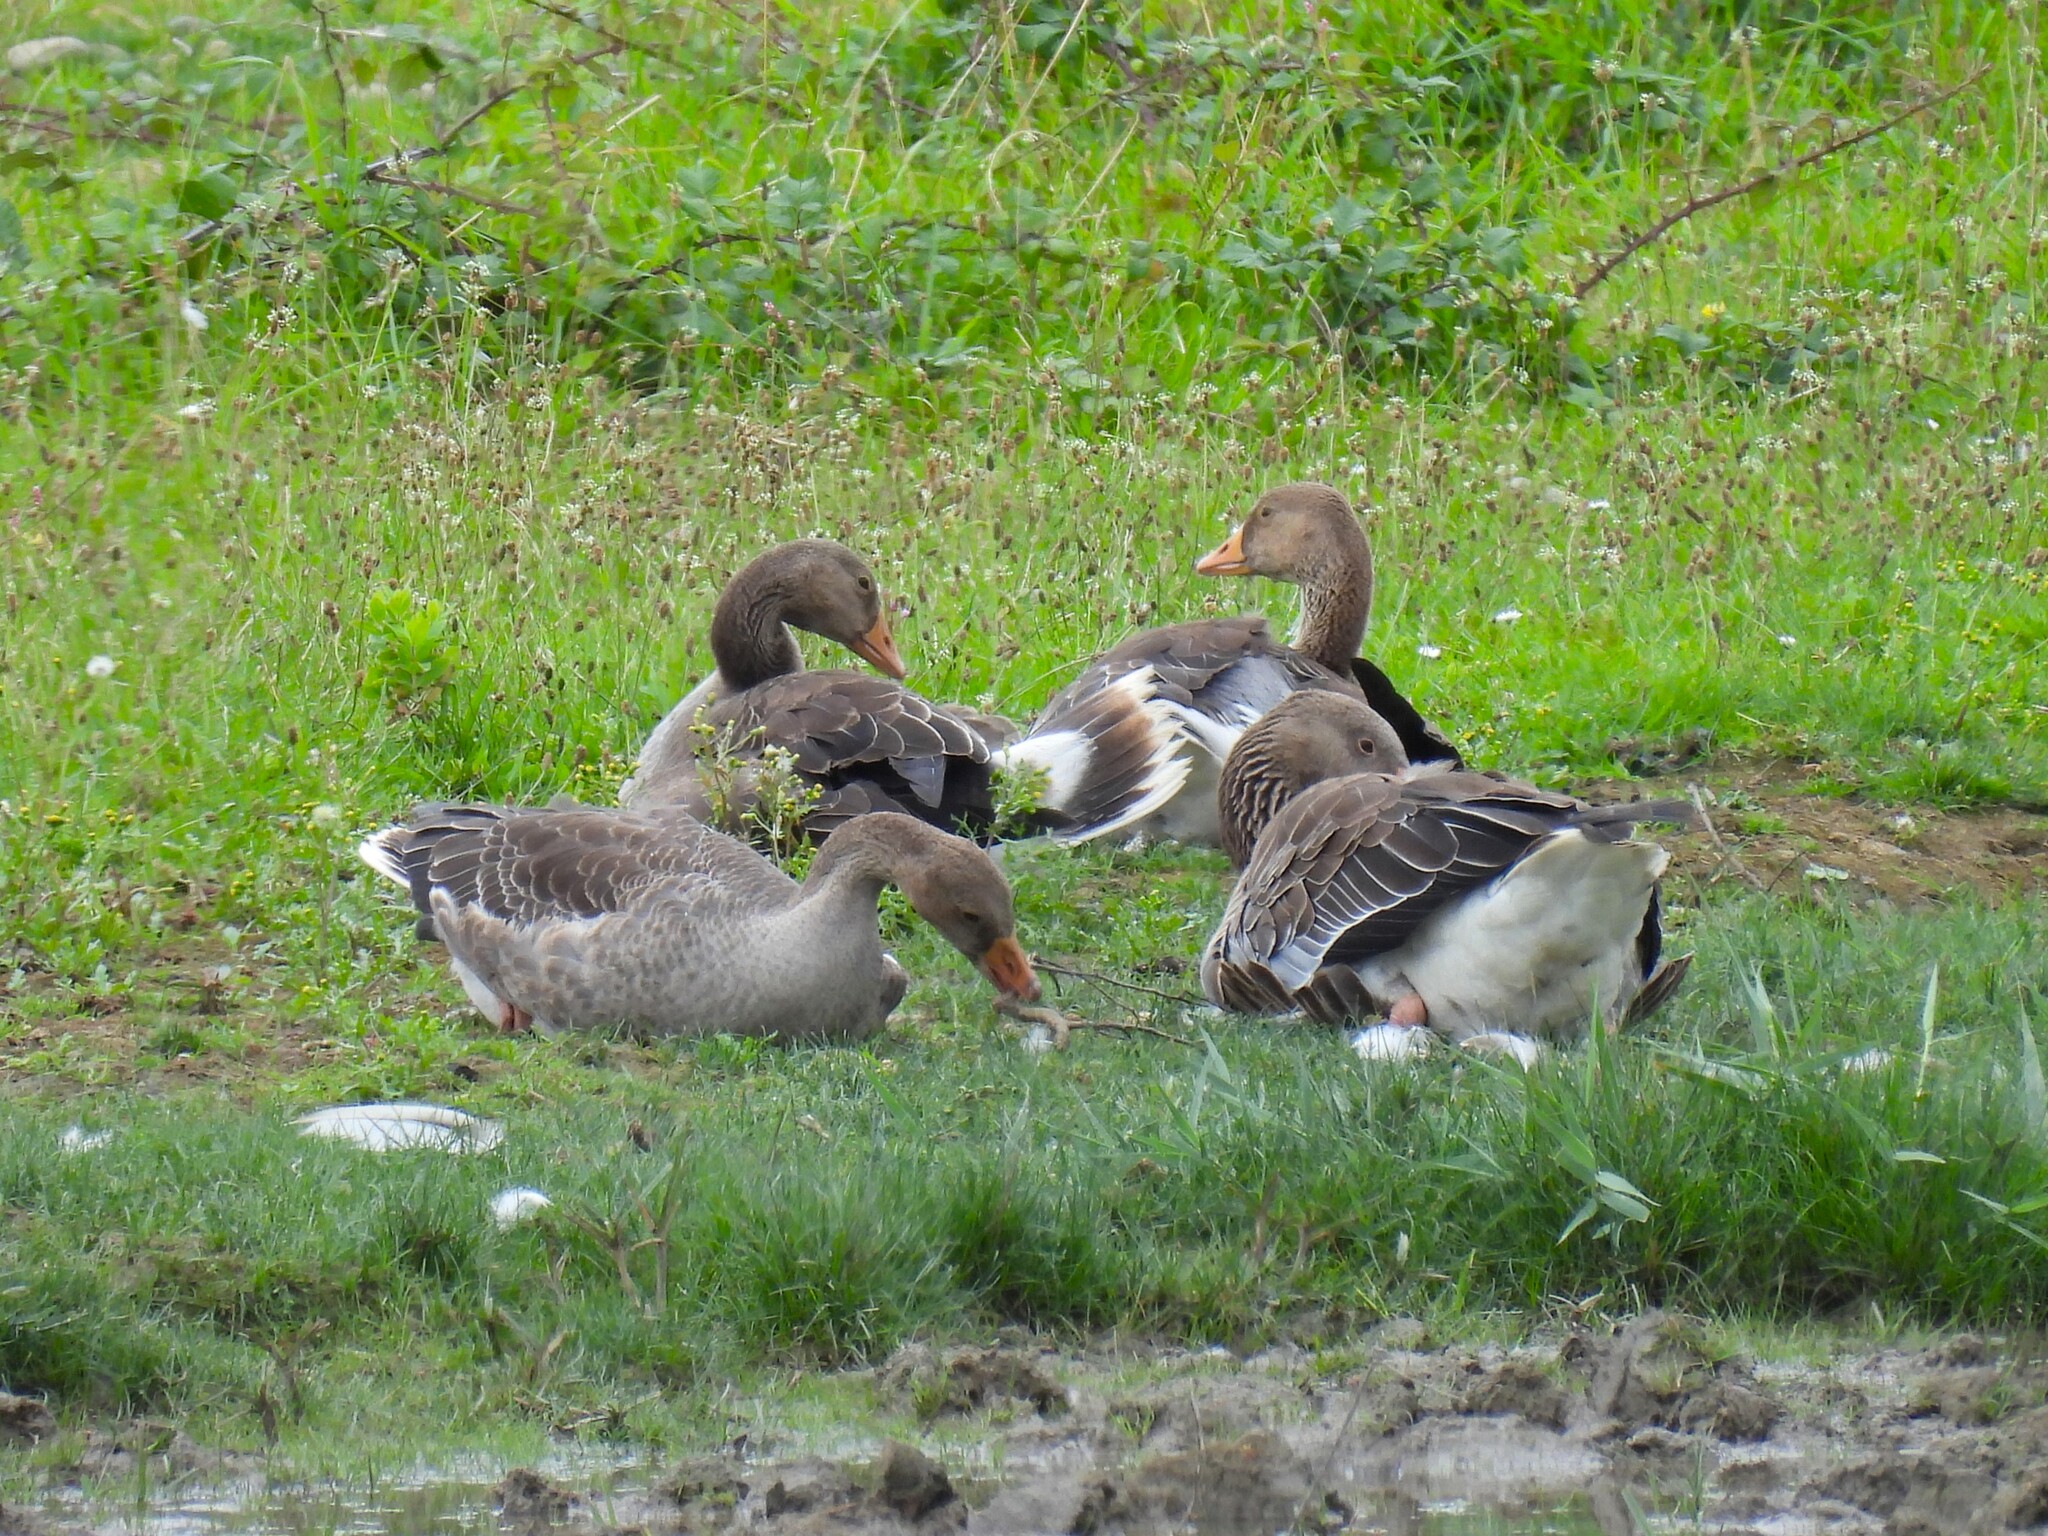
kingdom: Animalia
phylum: Chordata
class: Aves
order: Anseriformes
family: Anatidae
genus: Anser
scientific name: Anser anser
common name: Greylag goose
